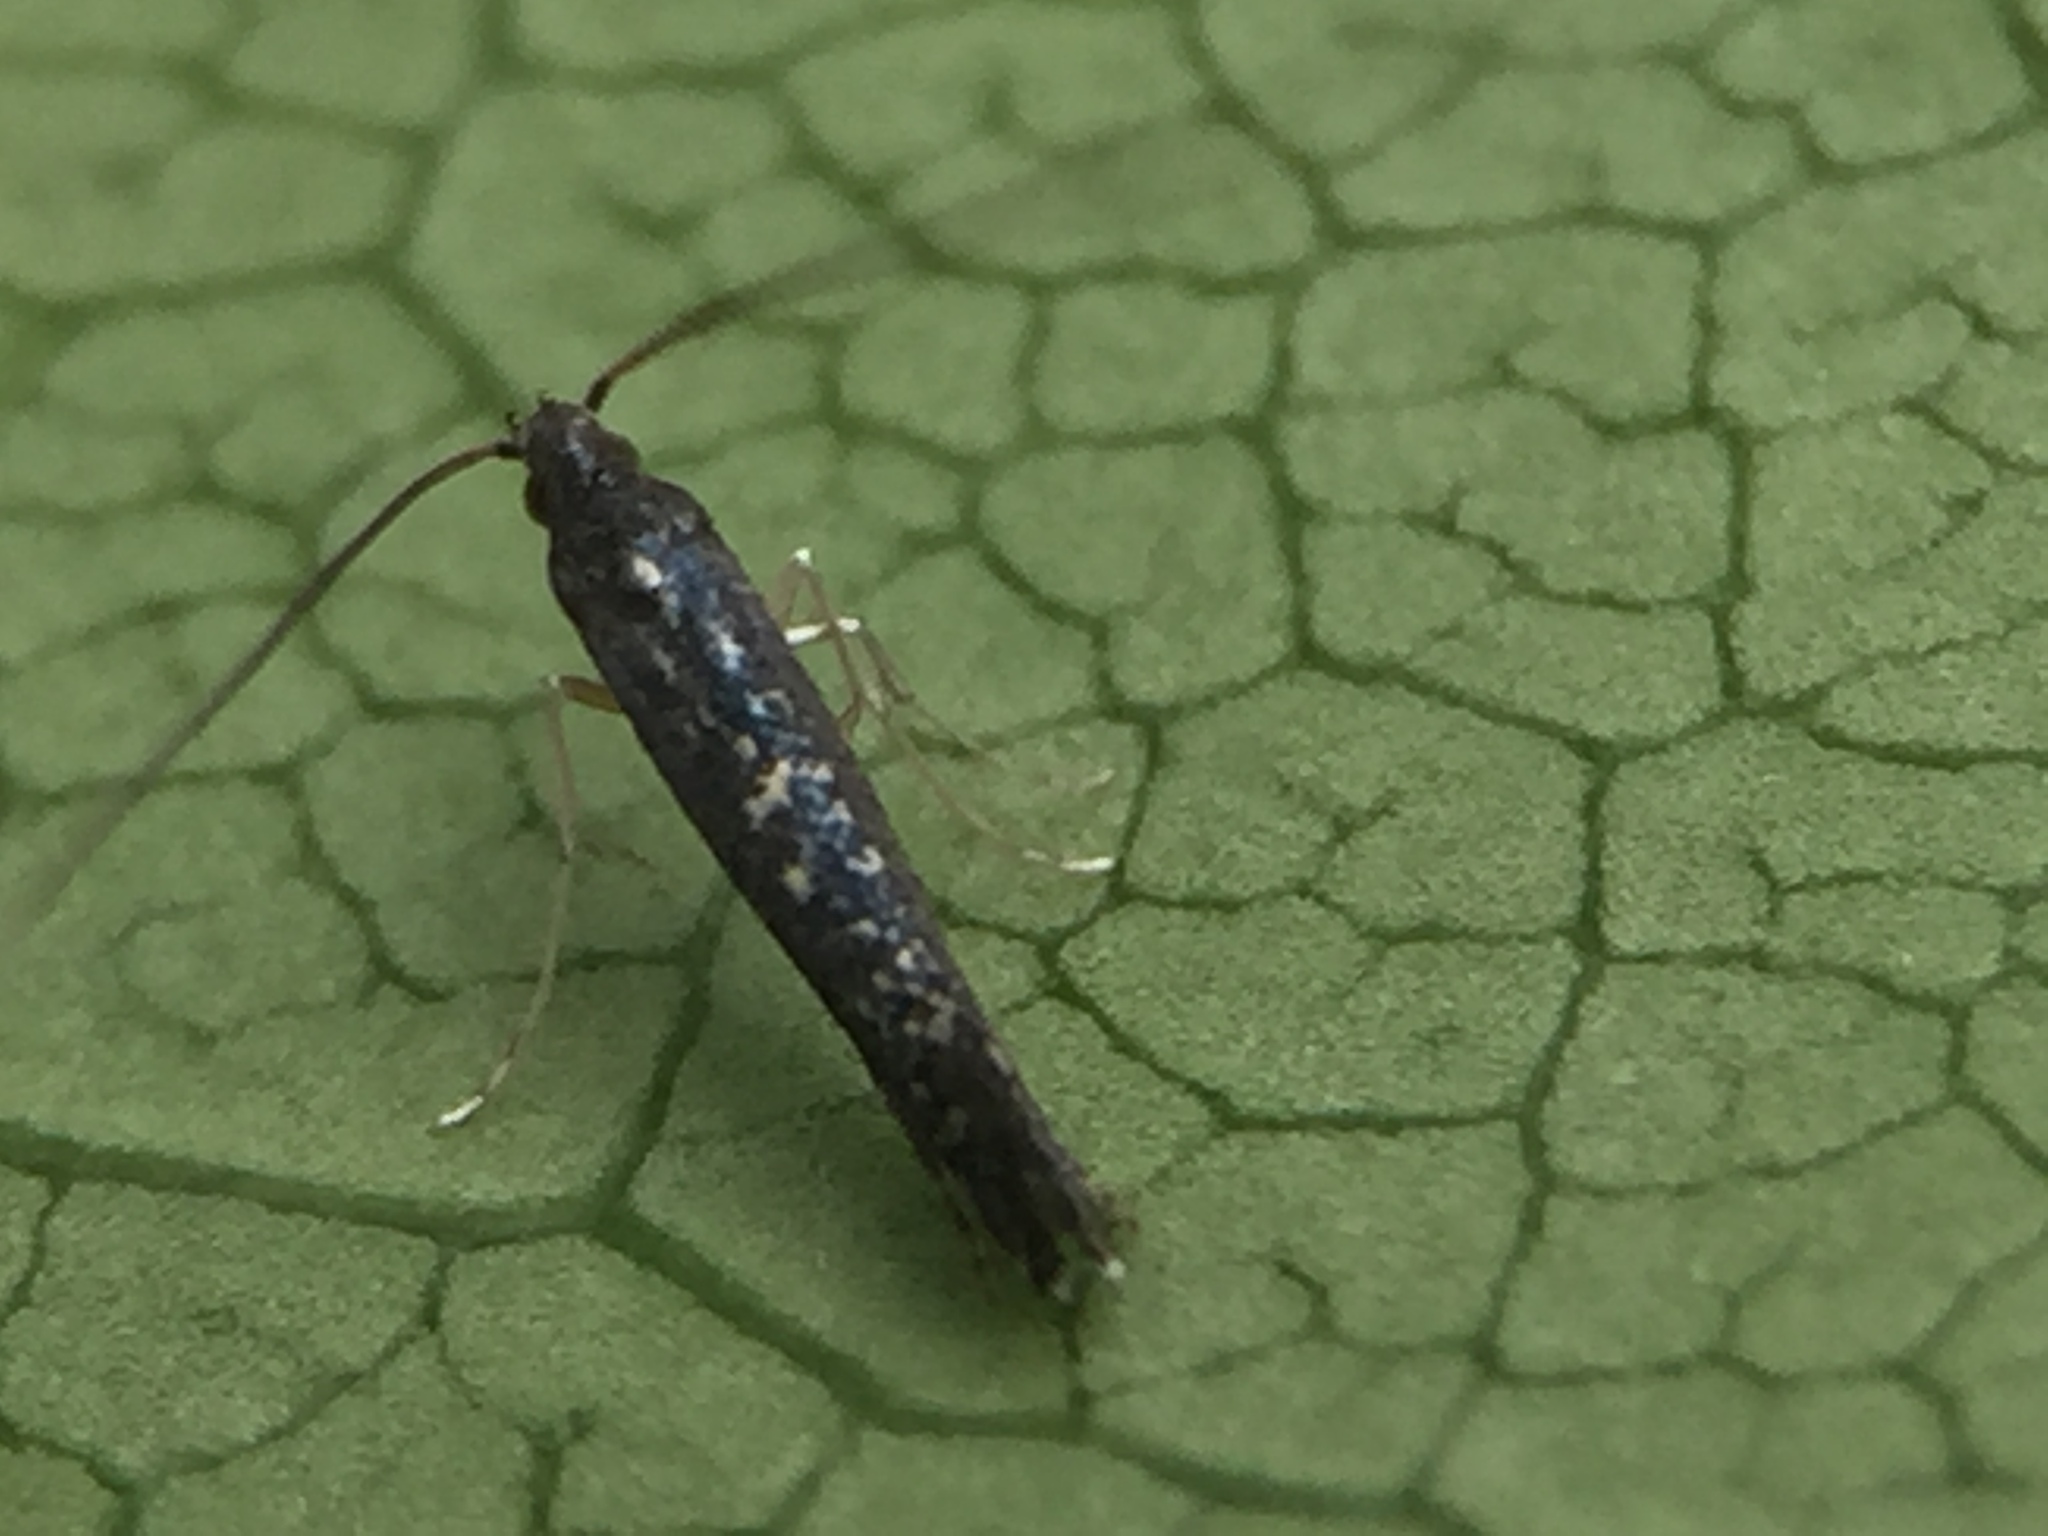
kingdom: Animalia
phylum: Arthropoda
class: Insecta
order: Lepidoptera
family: Gracillariidae
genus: Eumetriochroa
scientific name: Eumetriochroa aethalota
